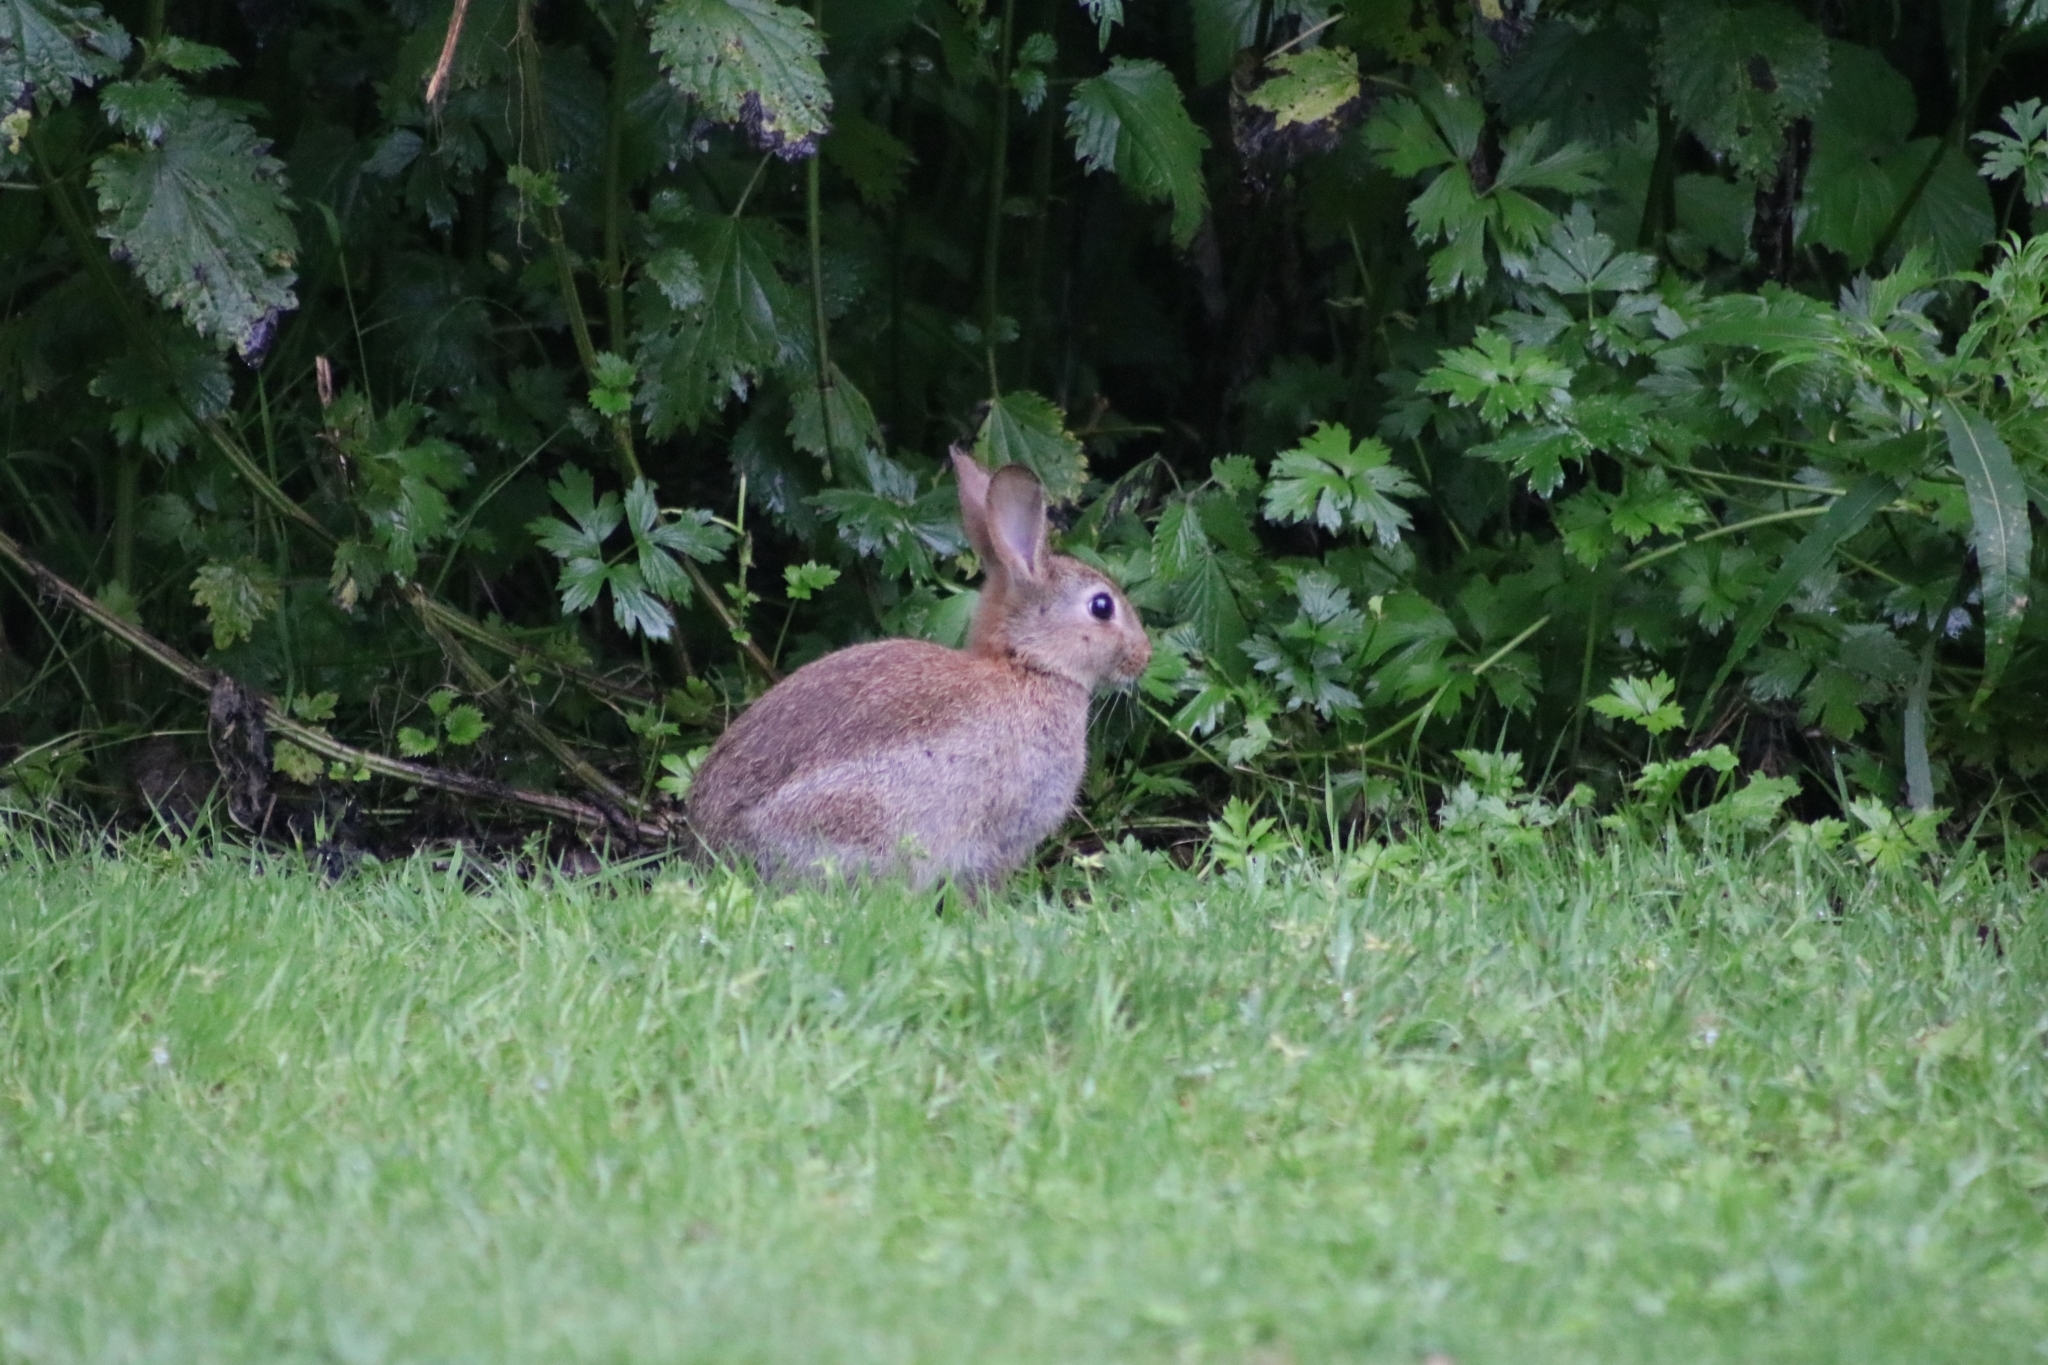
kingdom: Animalia
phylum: Chordata
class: Mammalia
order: Lagomorpha
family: Leporidae
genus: Oryctolagus
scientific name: Oryctolagus cuniculus
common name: European rabbit
